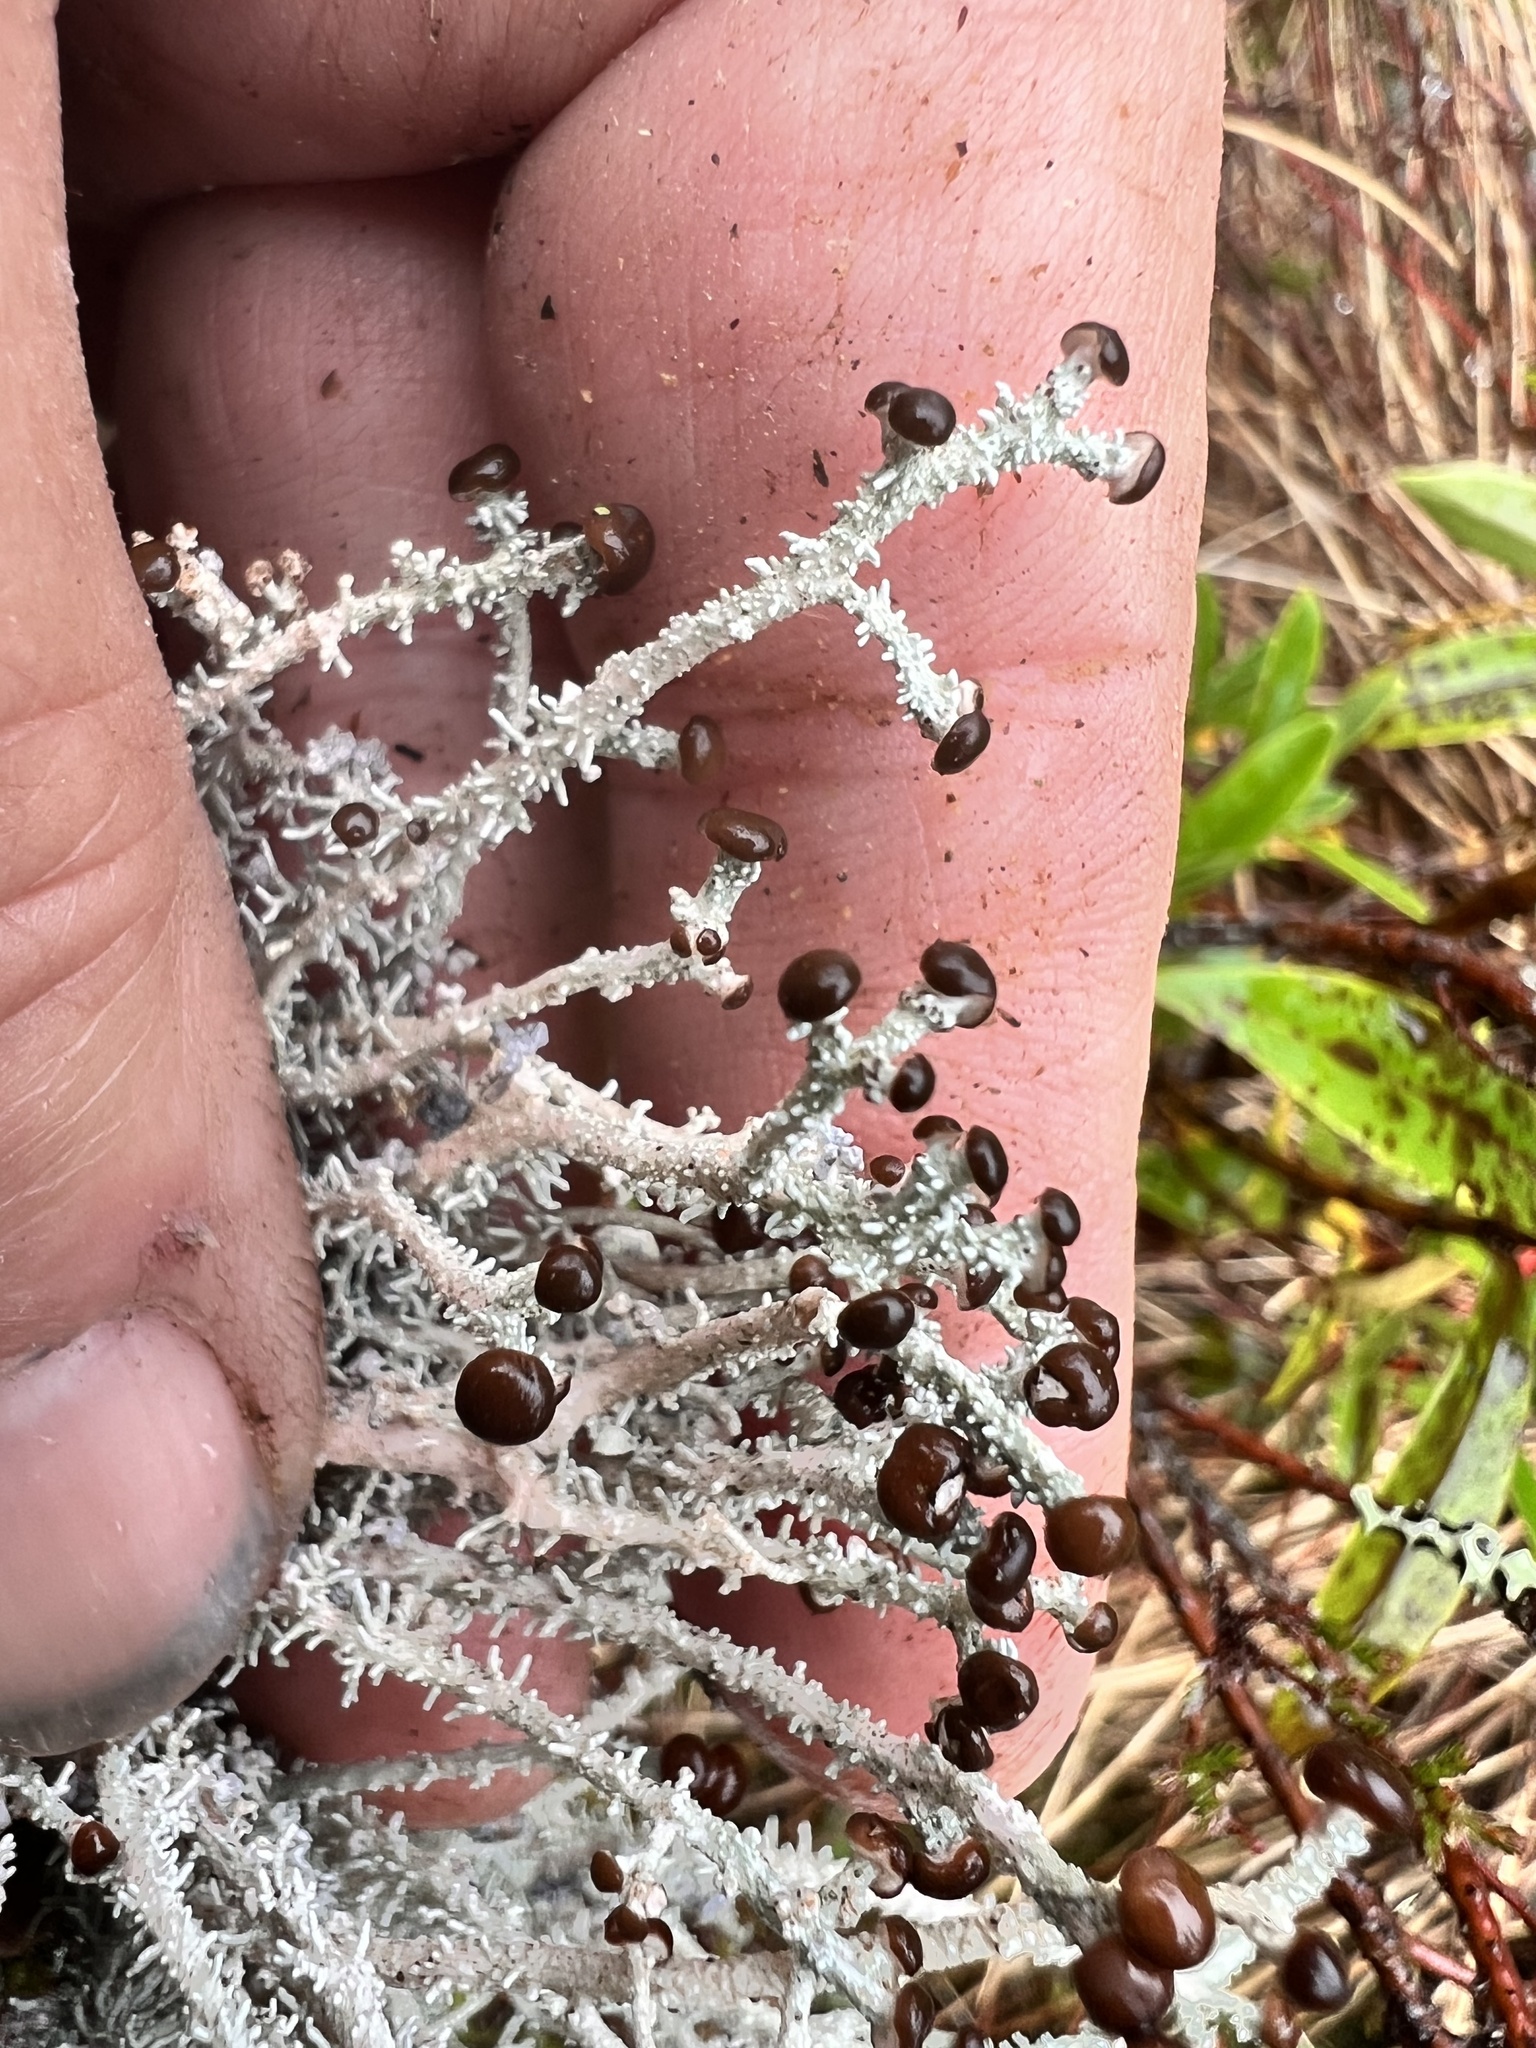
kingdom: Fungi
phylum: Ascomycota
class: Lecanoromycetes
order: Lecanorales
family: Stereocaulaceae
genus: Stereocaulon
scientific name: Stereocaulon ramulosum
